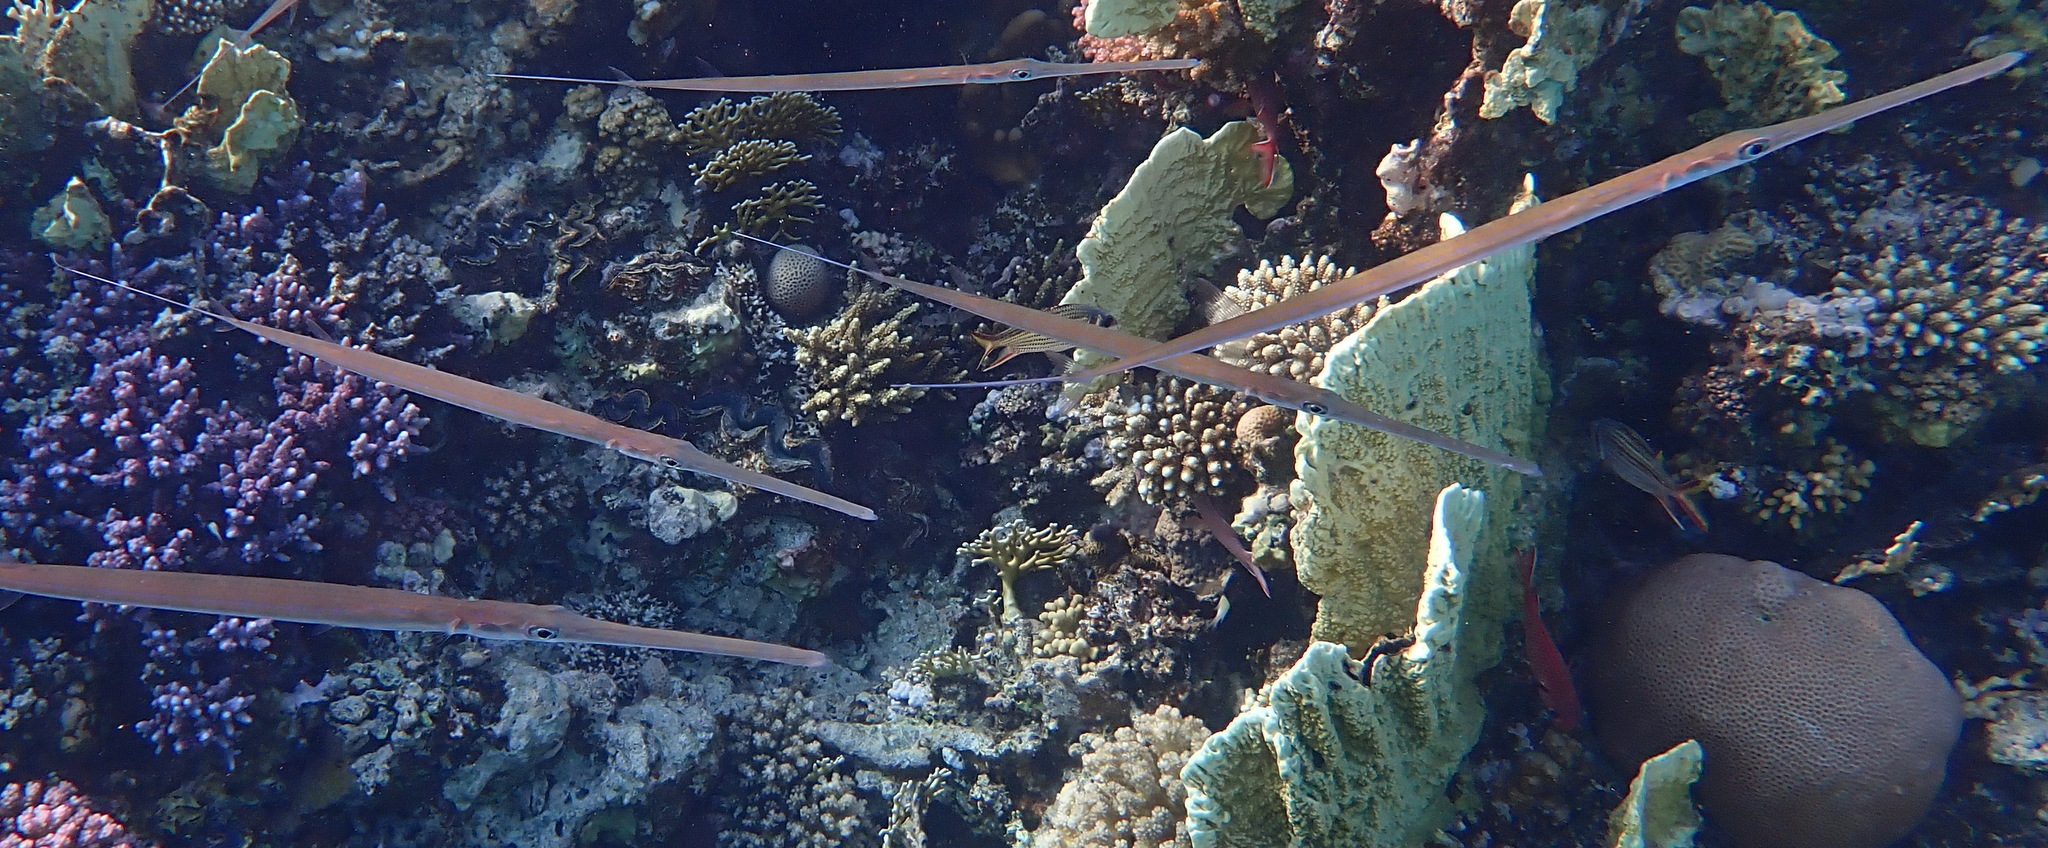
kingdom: Animalia
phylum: Chordata
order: Syngnathiformes
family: Fistulariidae
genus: Fistularia
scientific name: Fistularia commersonii
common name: Bluespotted cornetfish
